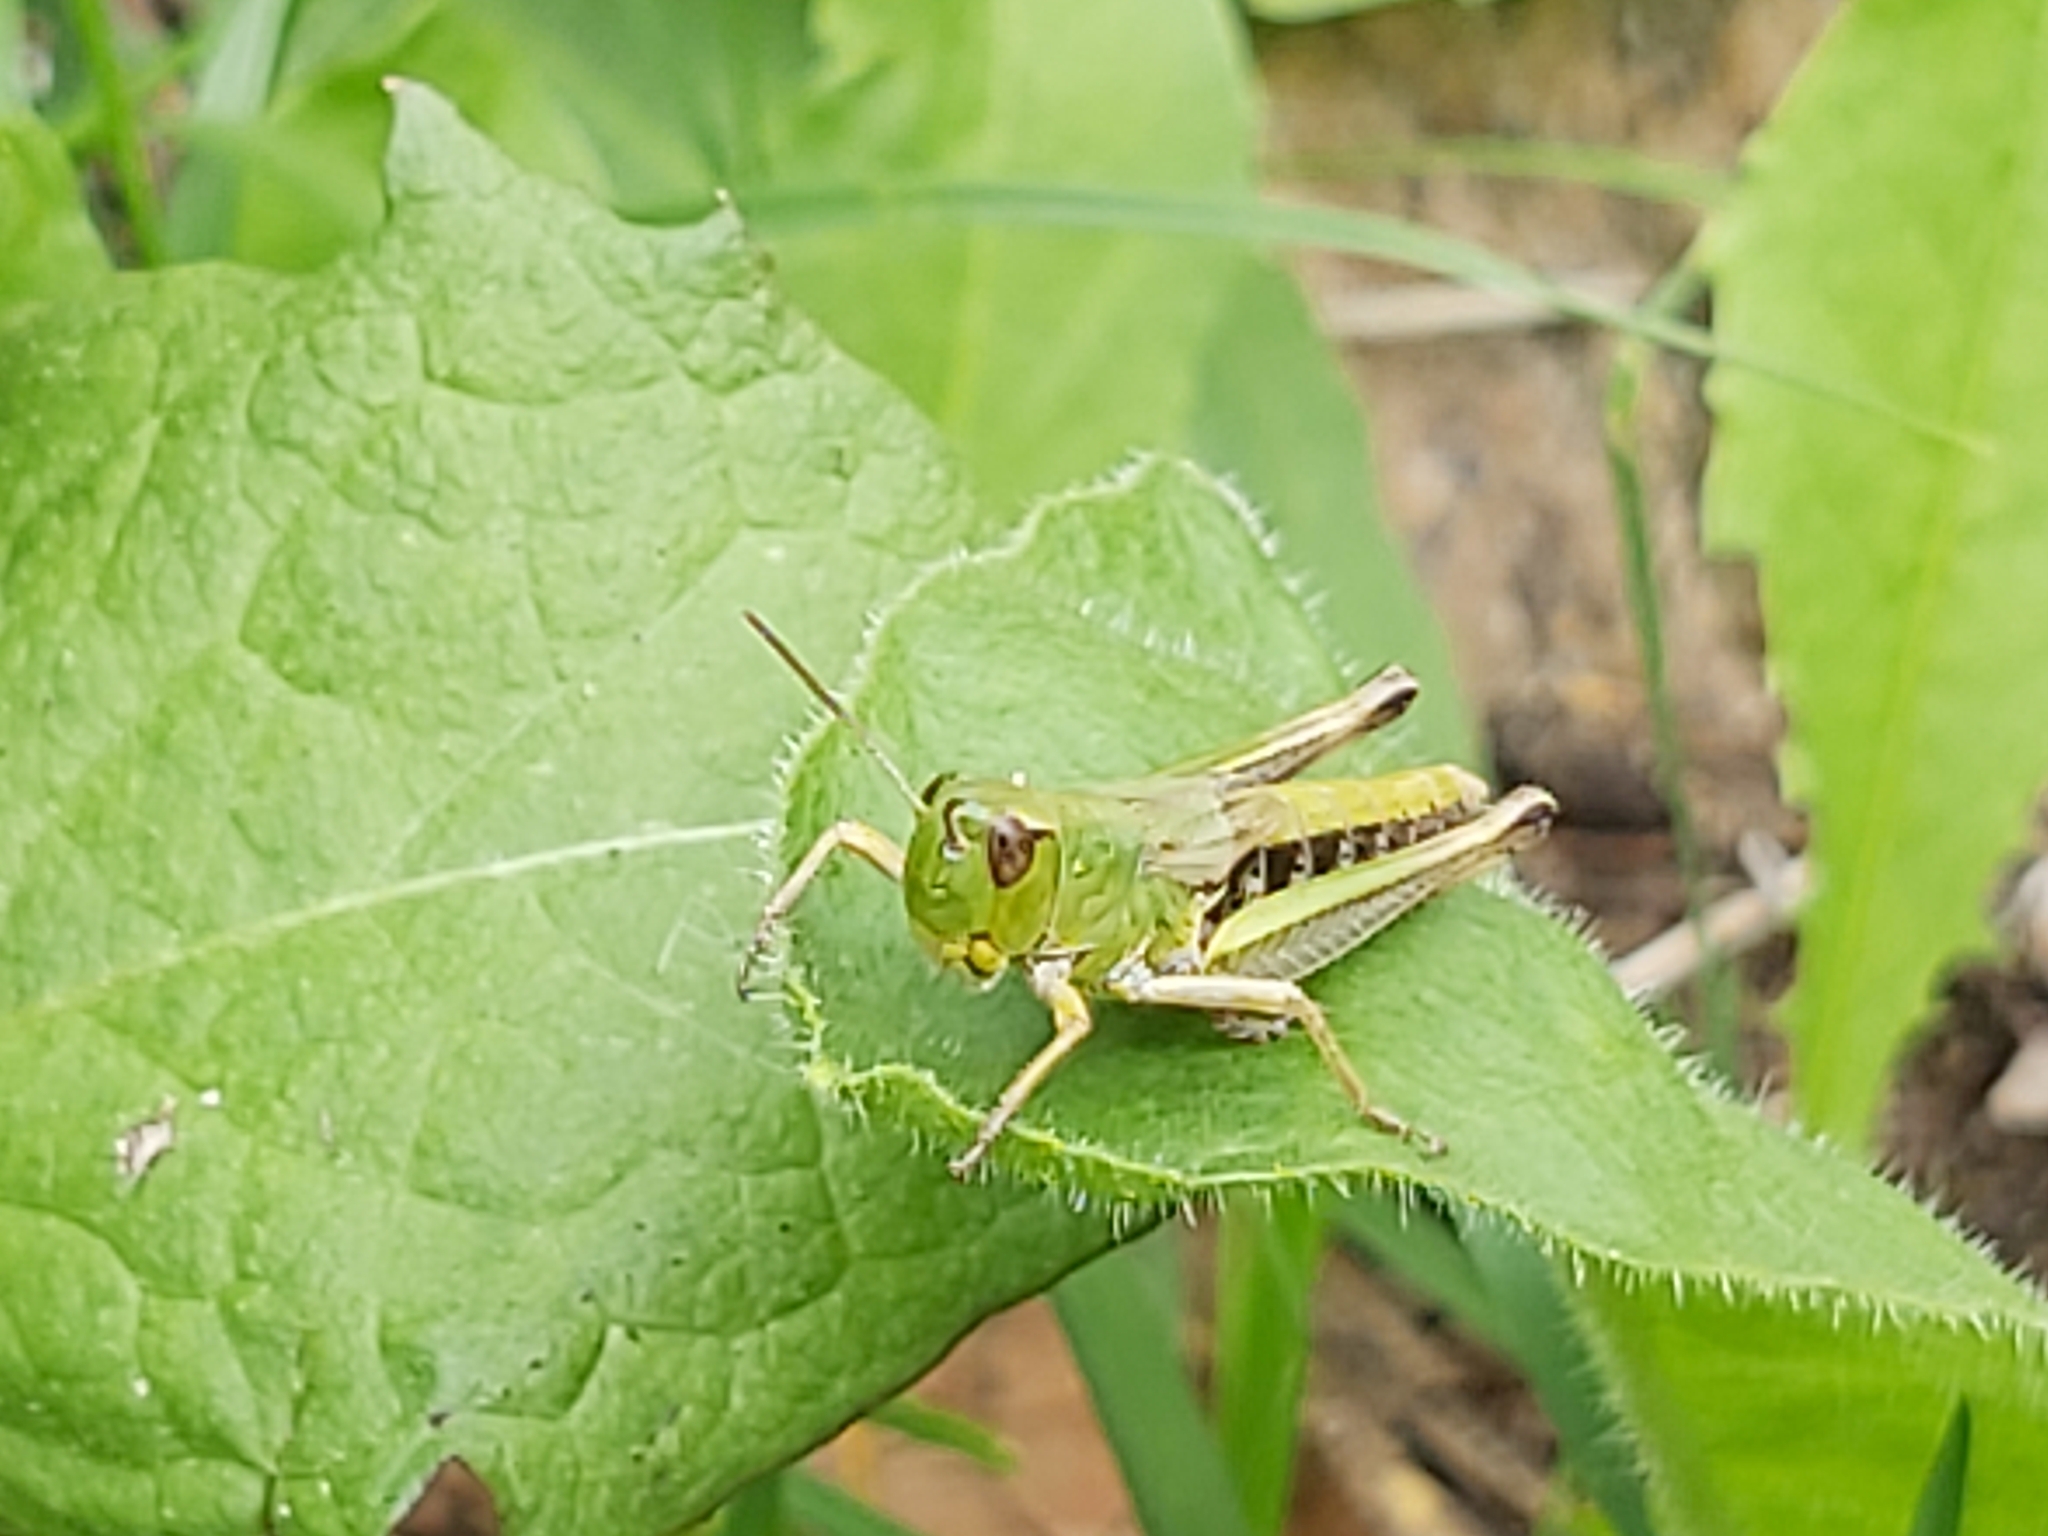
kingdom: Animalia
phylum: Arthropoda
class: Insecta
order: Orthoptera
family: Acrididae
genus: Pseudochorthippus
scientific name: Pseudochorthippus parallelus
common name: Meadow grasshopper
